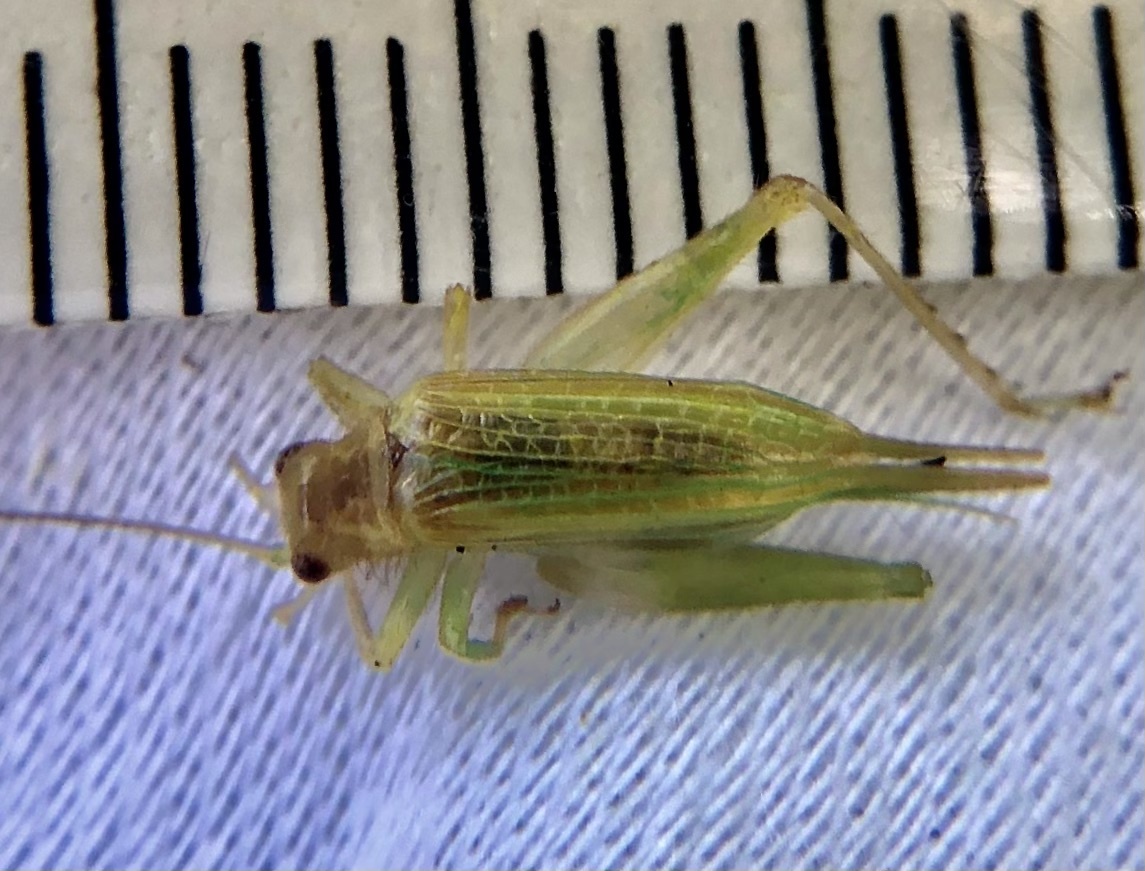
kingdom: Animalia
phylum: Arthropoda
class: Insecta
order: Orthoptera
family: Trigonidiidae
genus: Cyrtoxipha
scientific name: Cyrtoxipha columbiana
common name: Columbian trig
